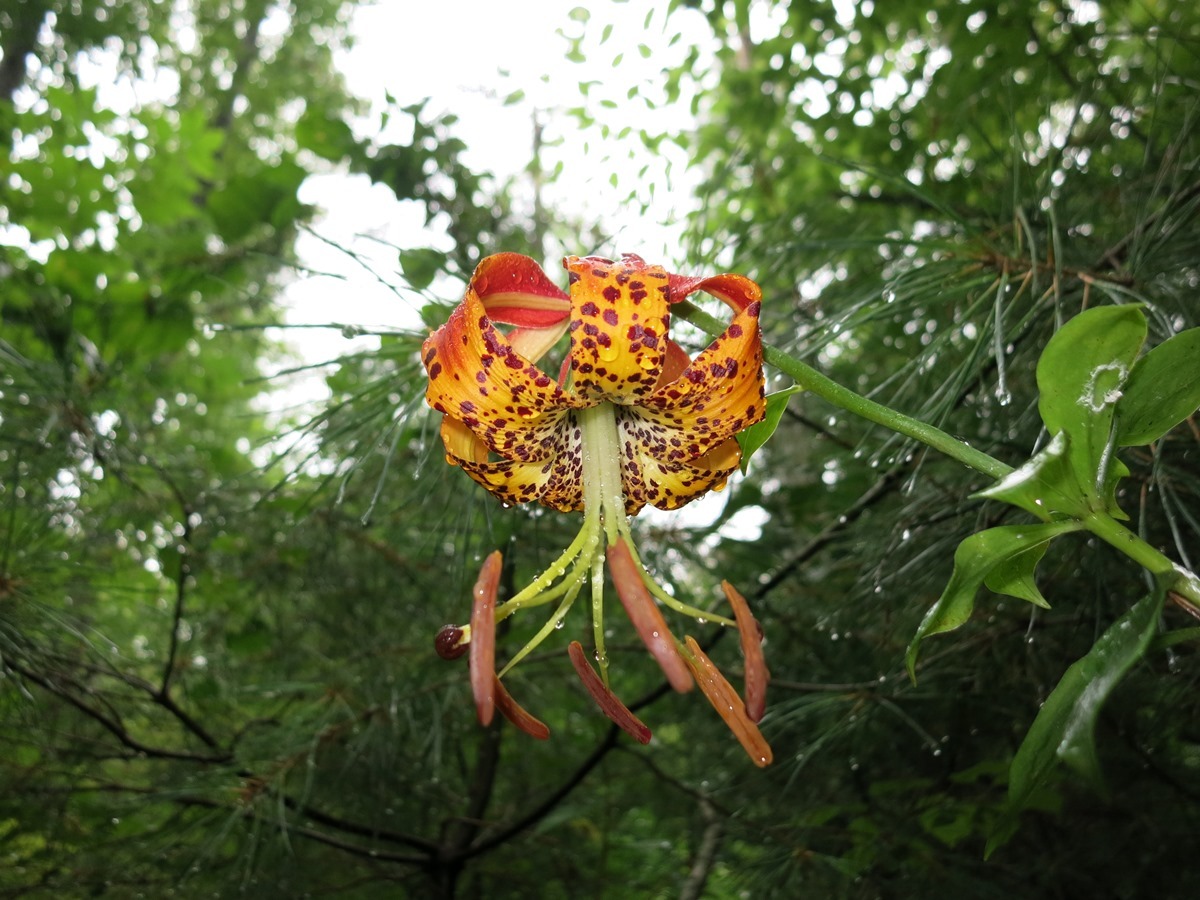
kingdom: Plantae
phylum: Tracheophyta
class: Liliopsida
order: Liliales
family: Liliaceae
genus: Lilium
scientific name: Lilium michauxii
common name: Carolina lily
